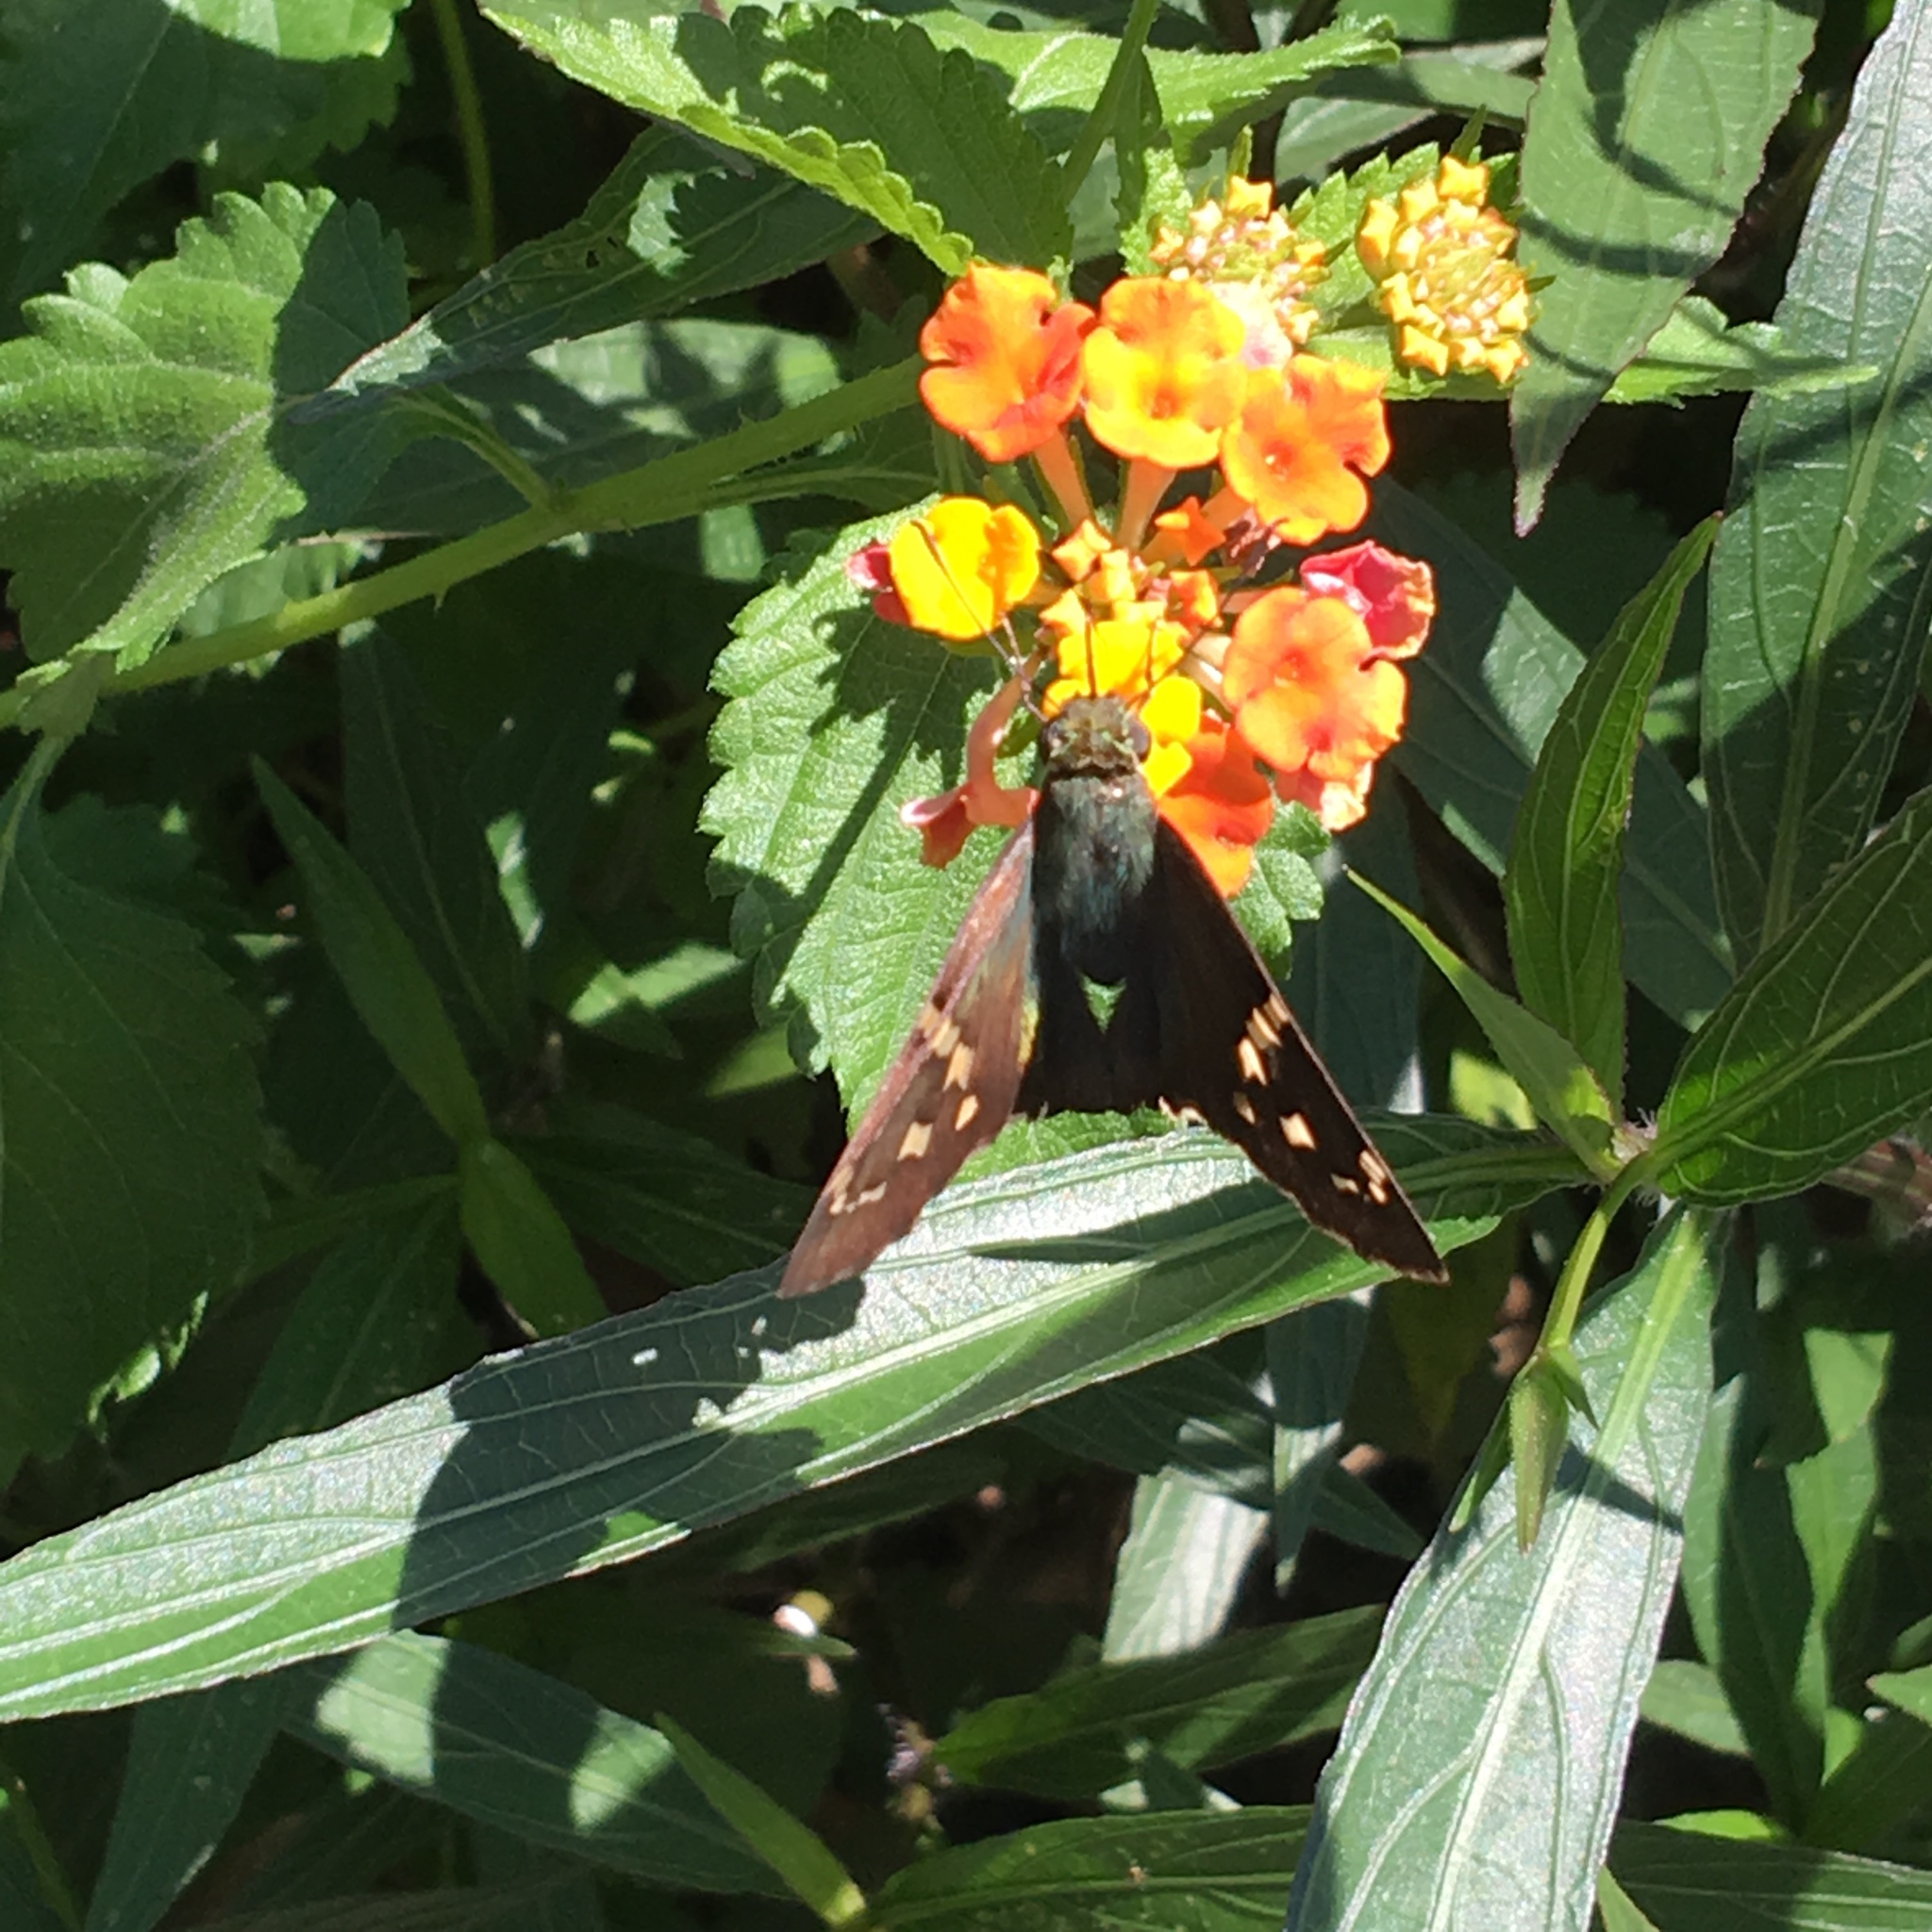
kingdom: Animalia
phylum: Arthropoda
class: Insecta
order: Lepidoptera
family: Hesperiidae
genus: Urbanus
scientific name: Urbanus proteus
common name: Long-tailed skipper
